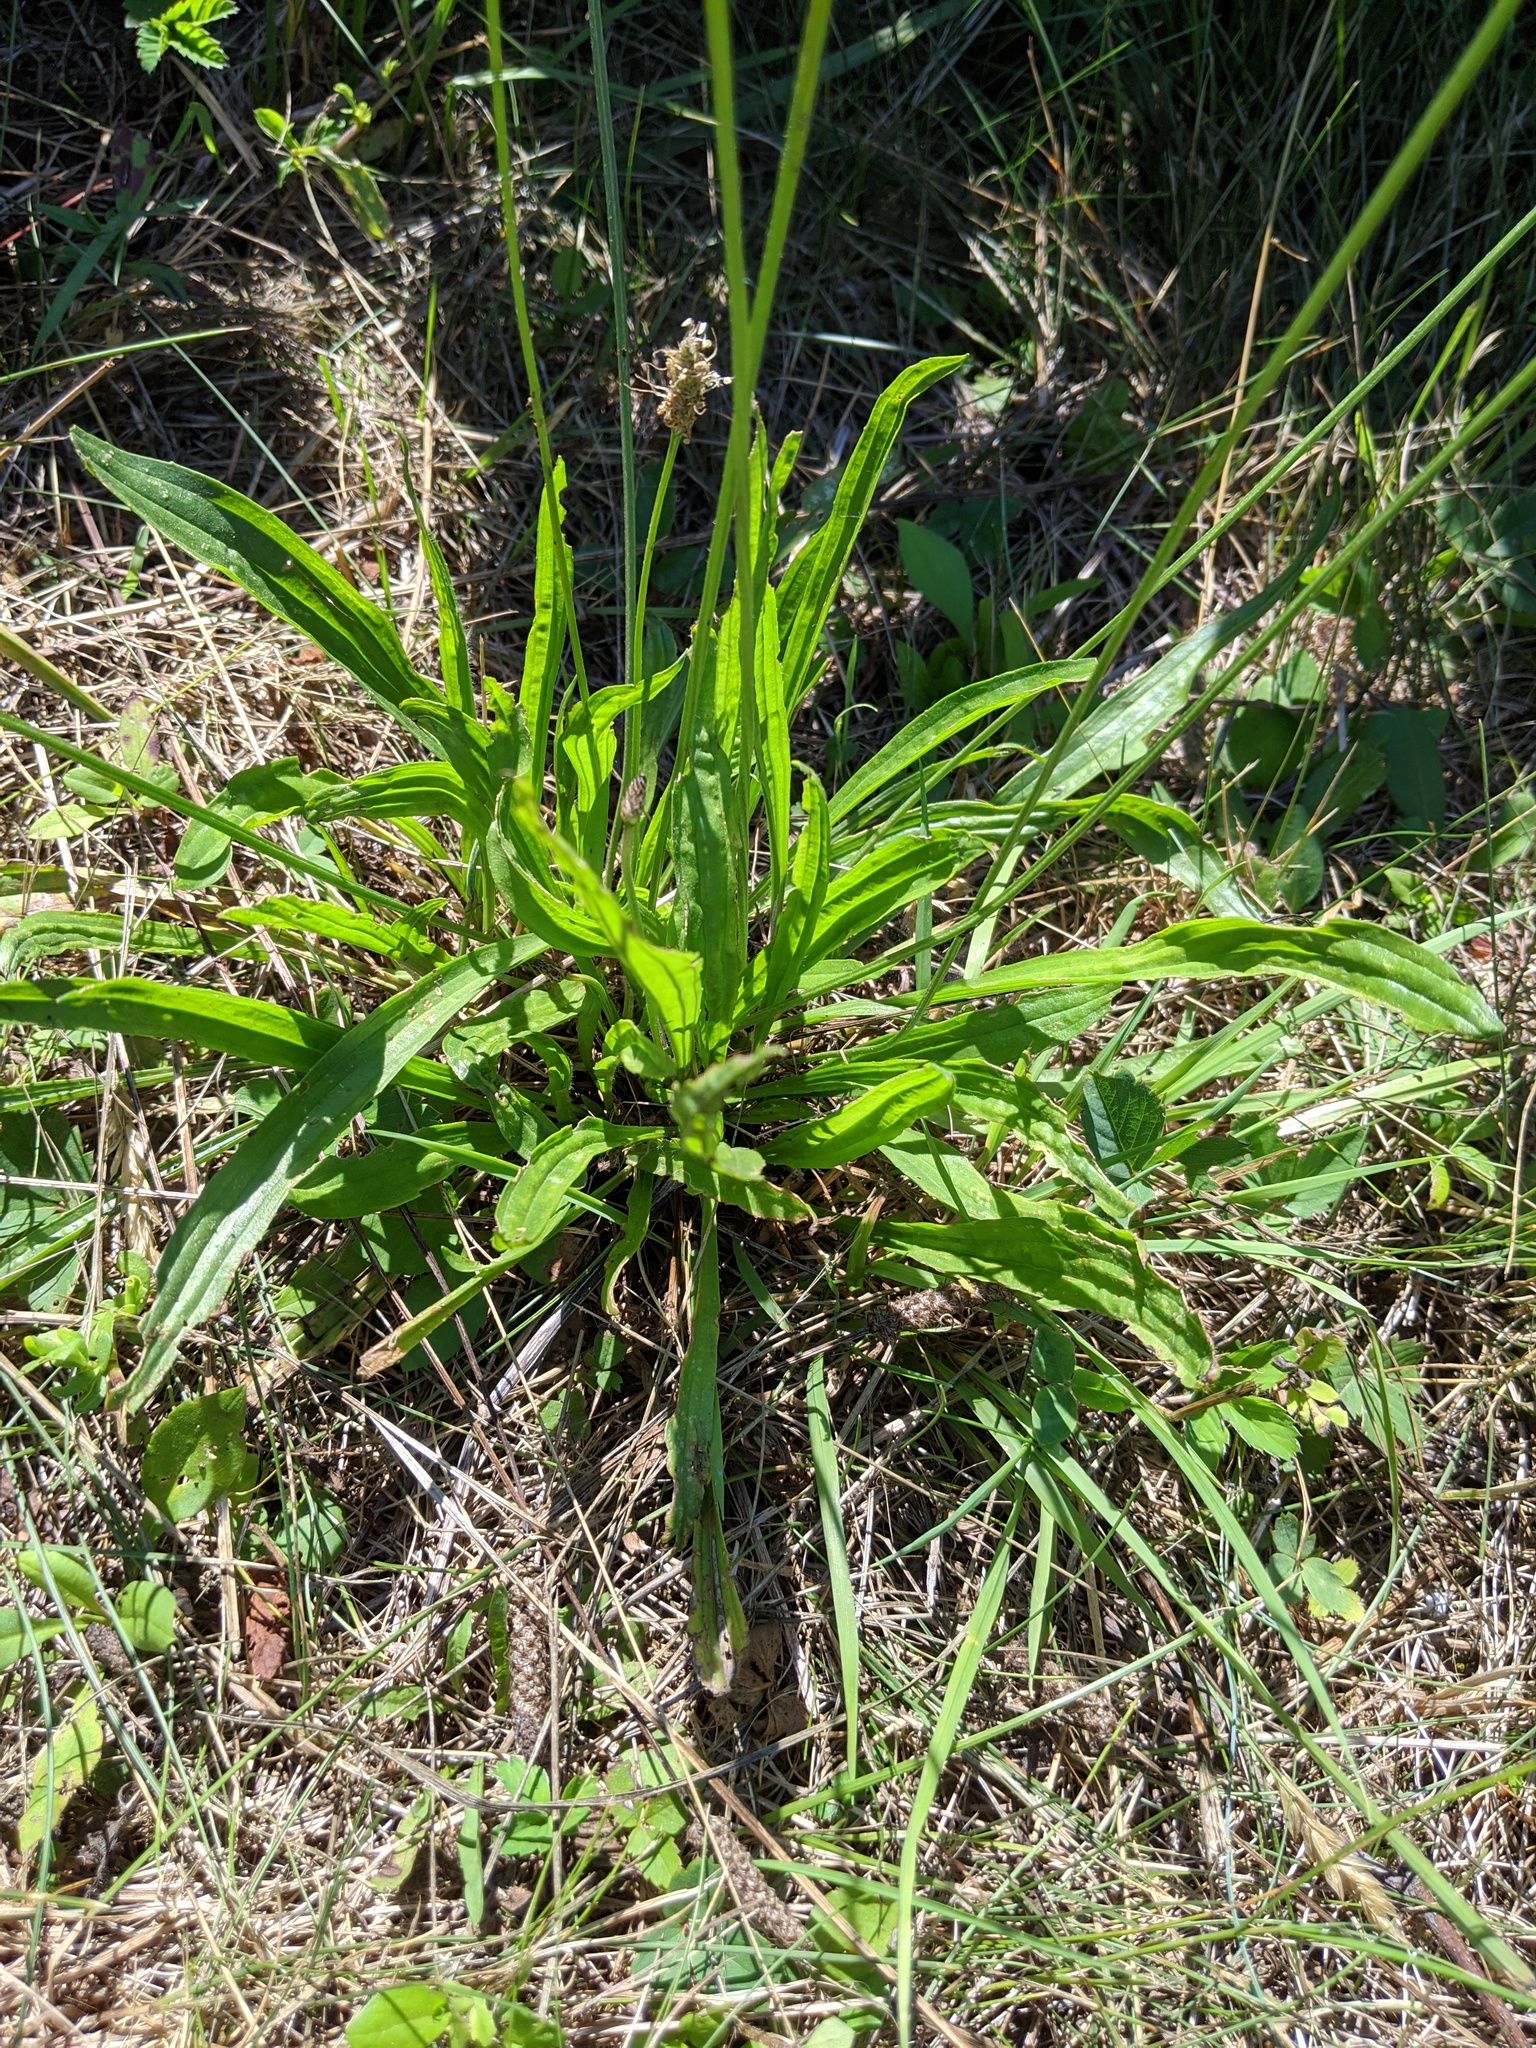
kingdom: Plantae
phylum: Tracheophyta
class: Magnoliopsida
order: Lamiales
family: Plantaginaceae
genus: Plantago
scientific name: Plantago lanceolata
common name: Ribwort plantain
